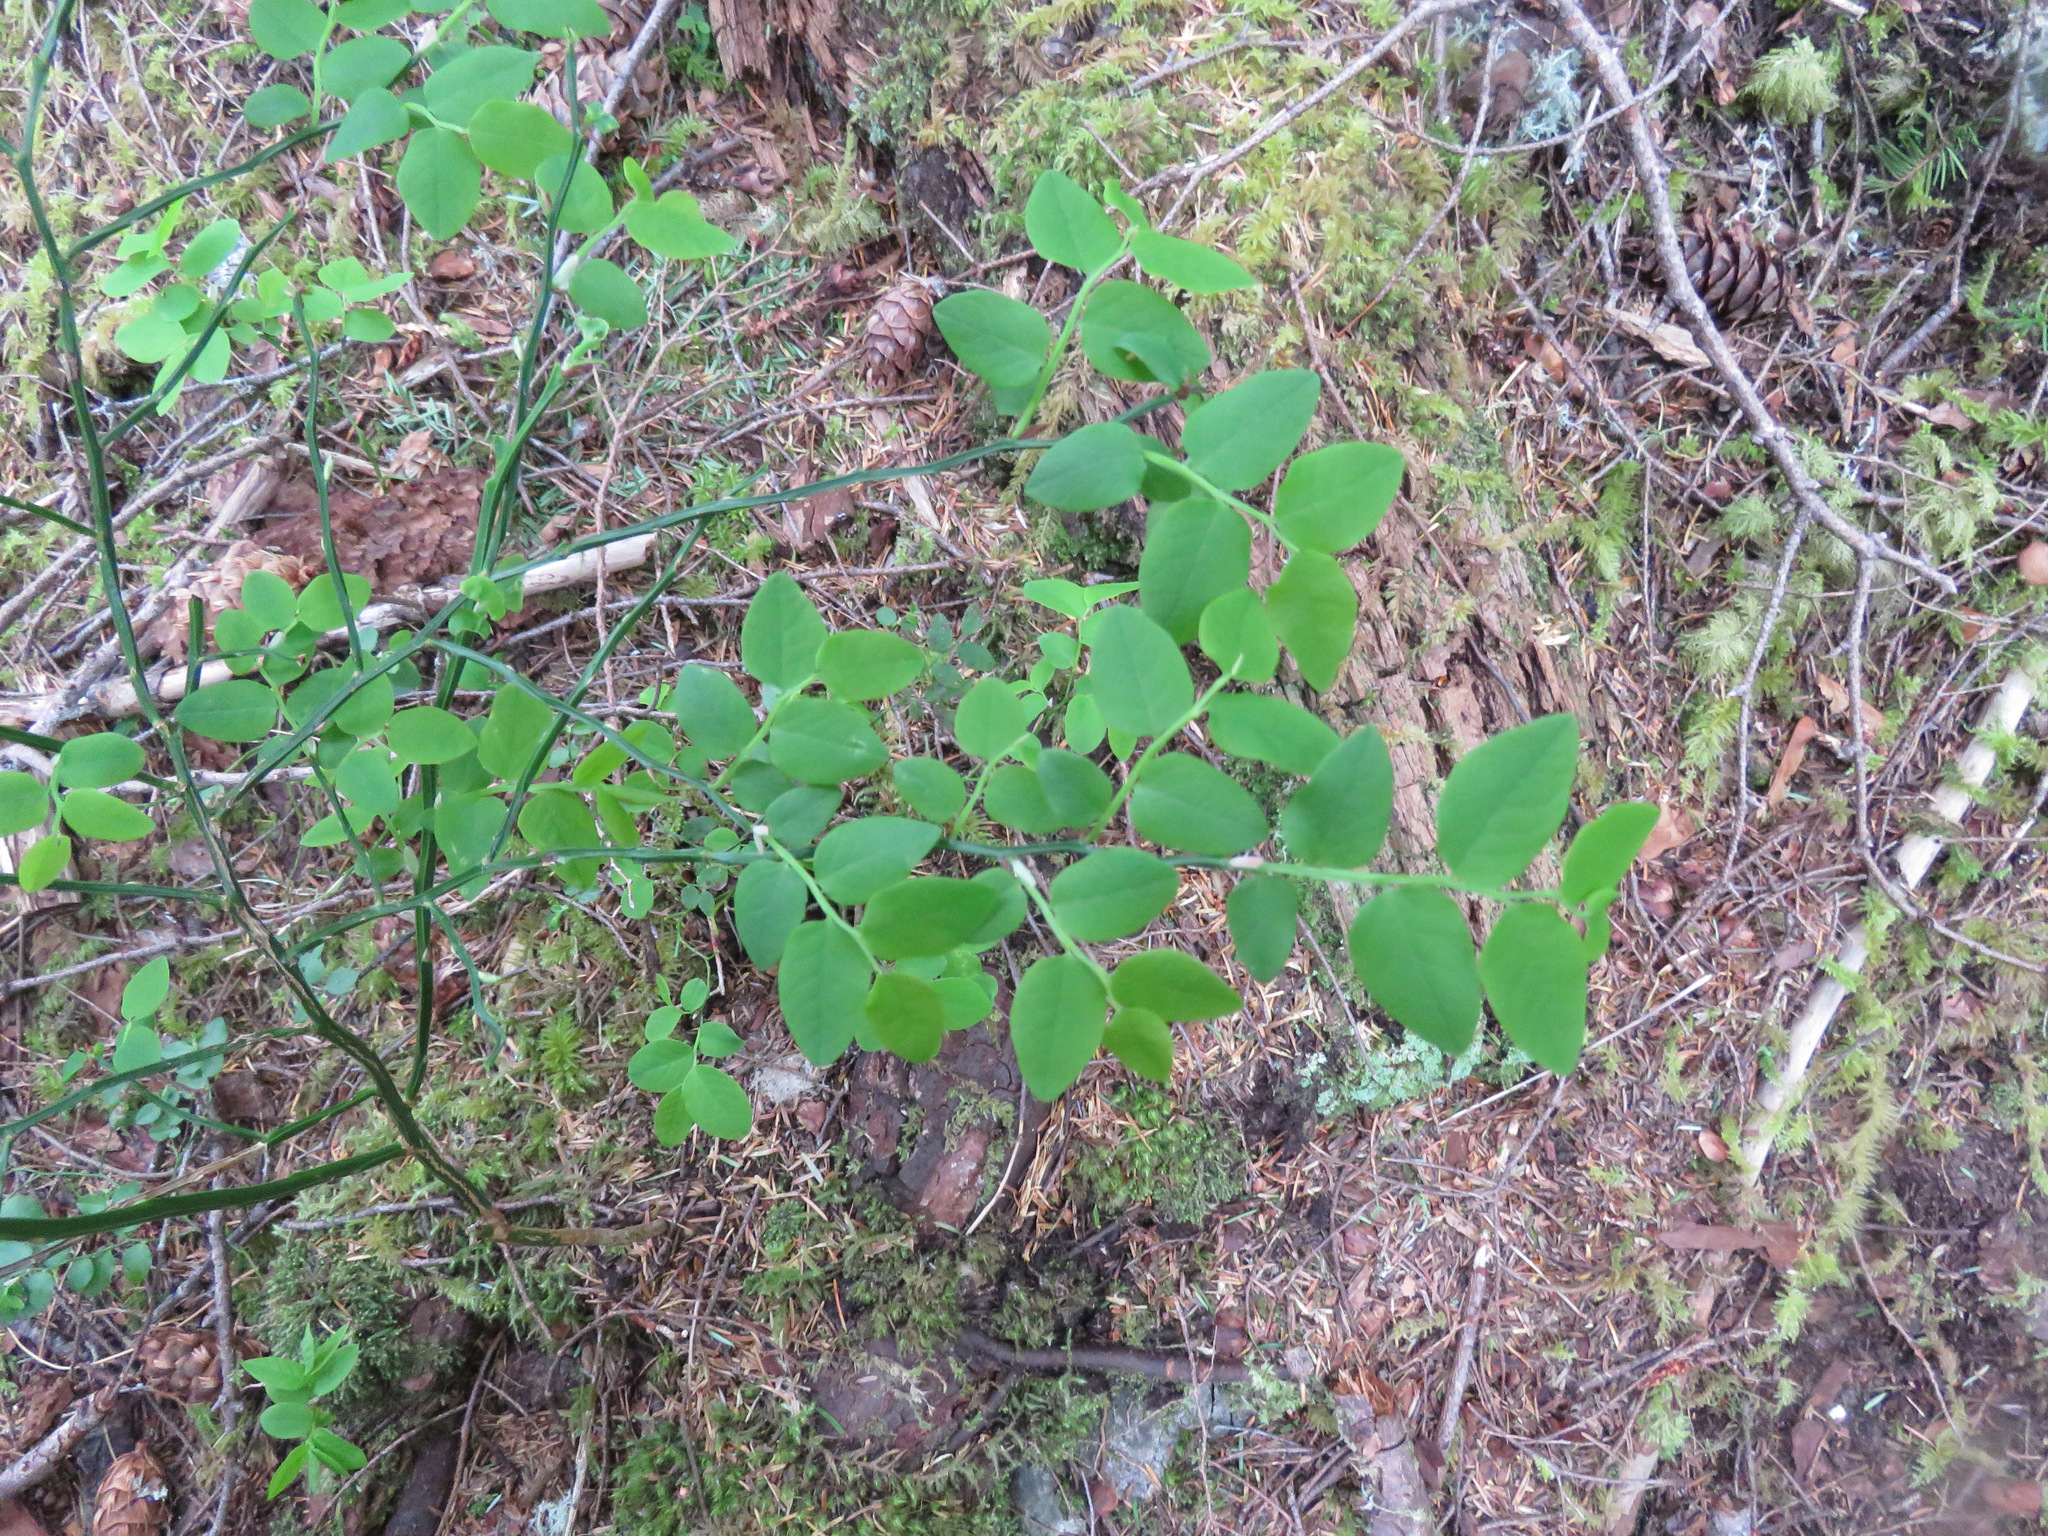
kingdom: Plantae
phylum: Tracheophyta
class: Magnoliopsida
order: Ericales
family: Ericaceae
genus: Vaccinium
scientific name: Vaccinium parvifolium
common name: Red-huckleberry
